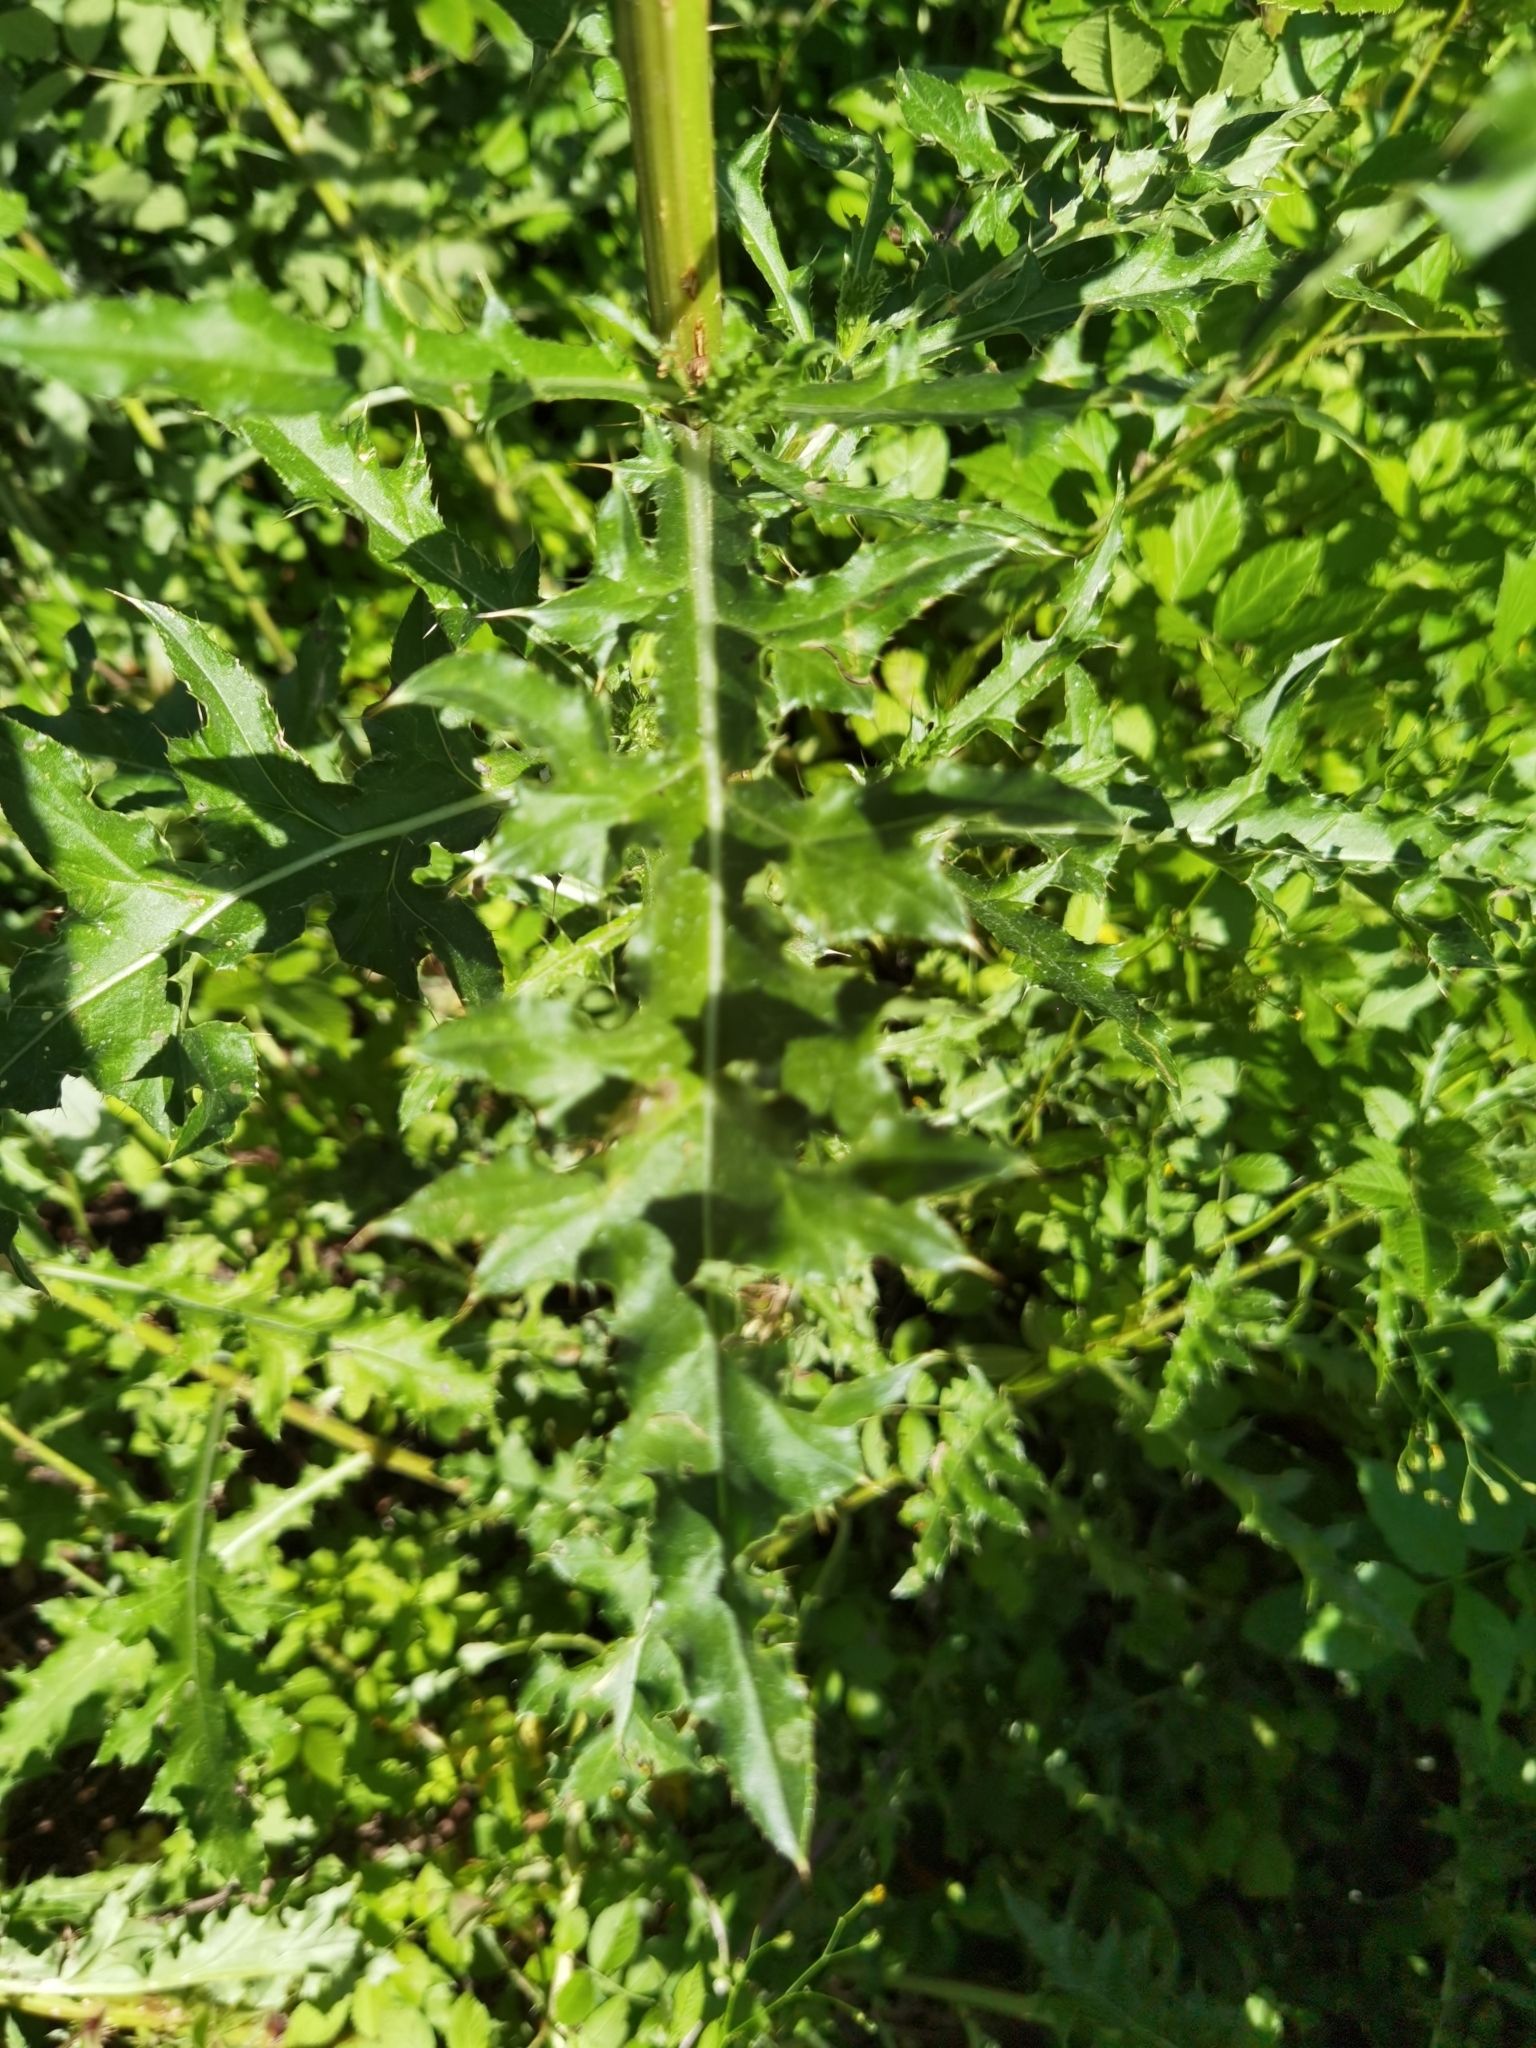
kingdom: Plantae
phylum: Tracheophyta
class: Magnoliopsida
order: Asterales
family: Asteraceae
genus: Cirsium
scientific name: Cirsium arvense
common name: Creeping thistle
